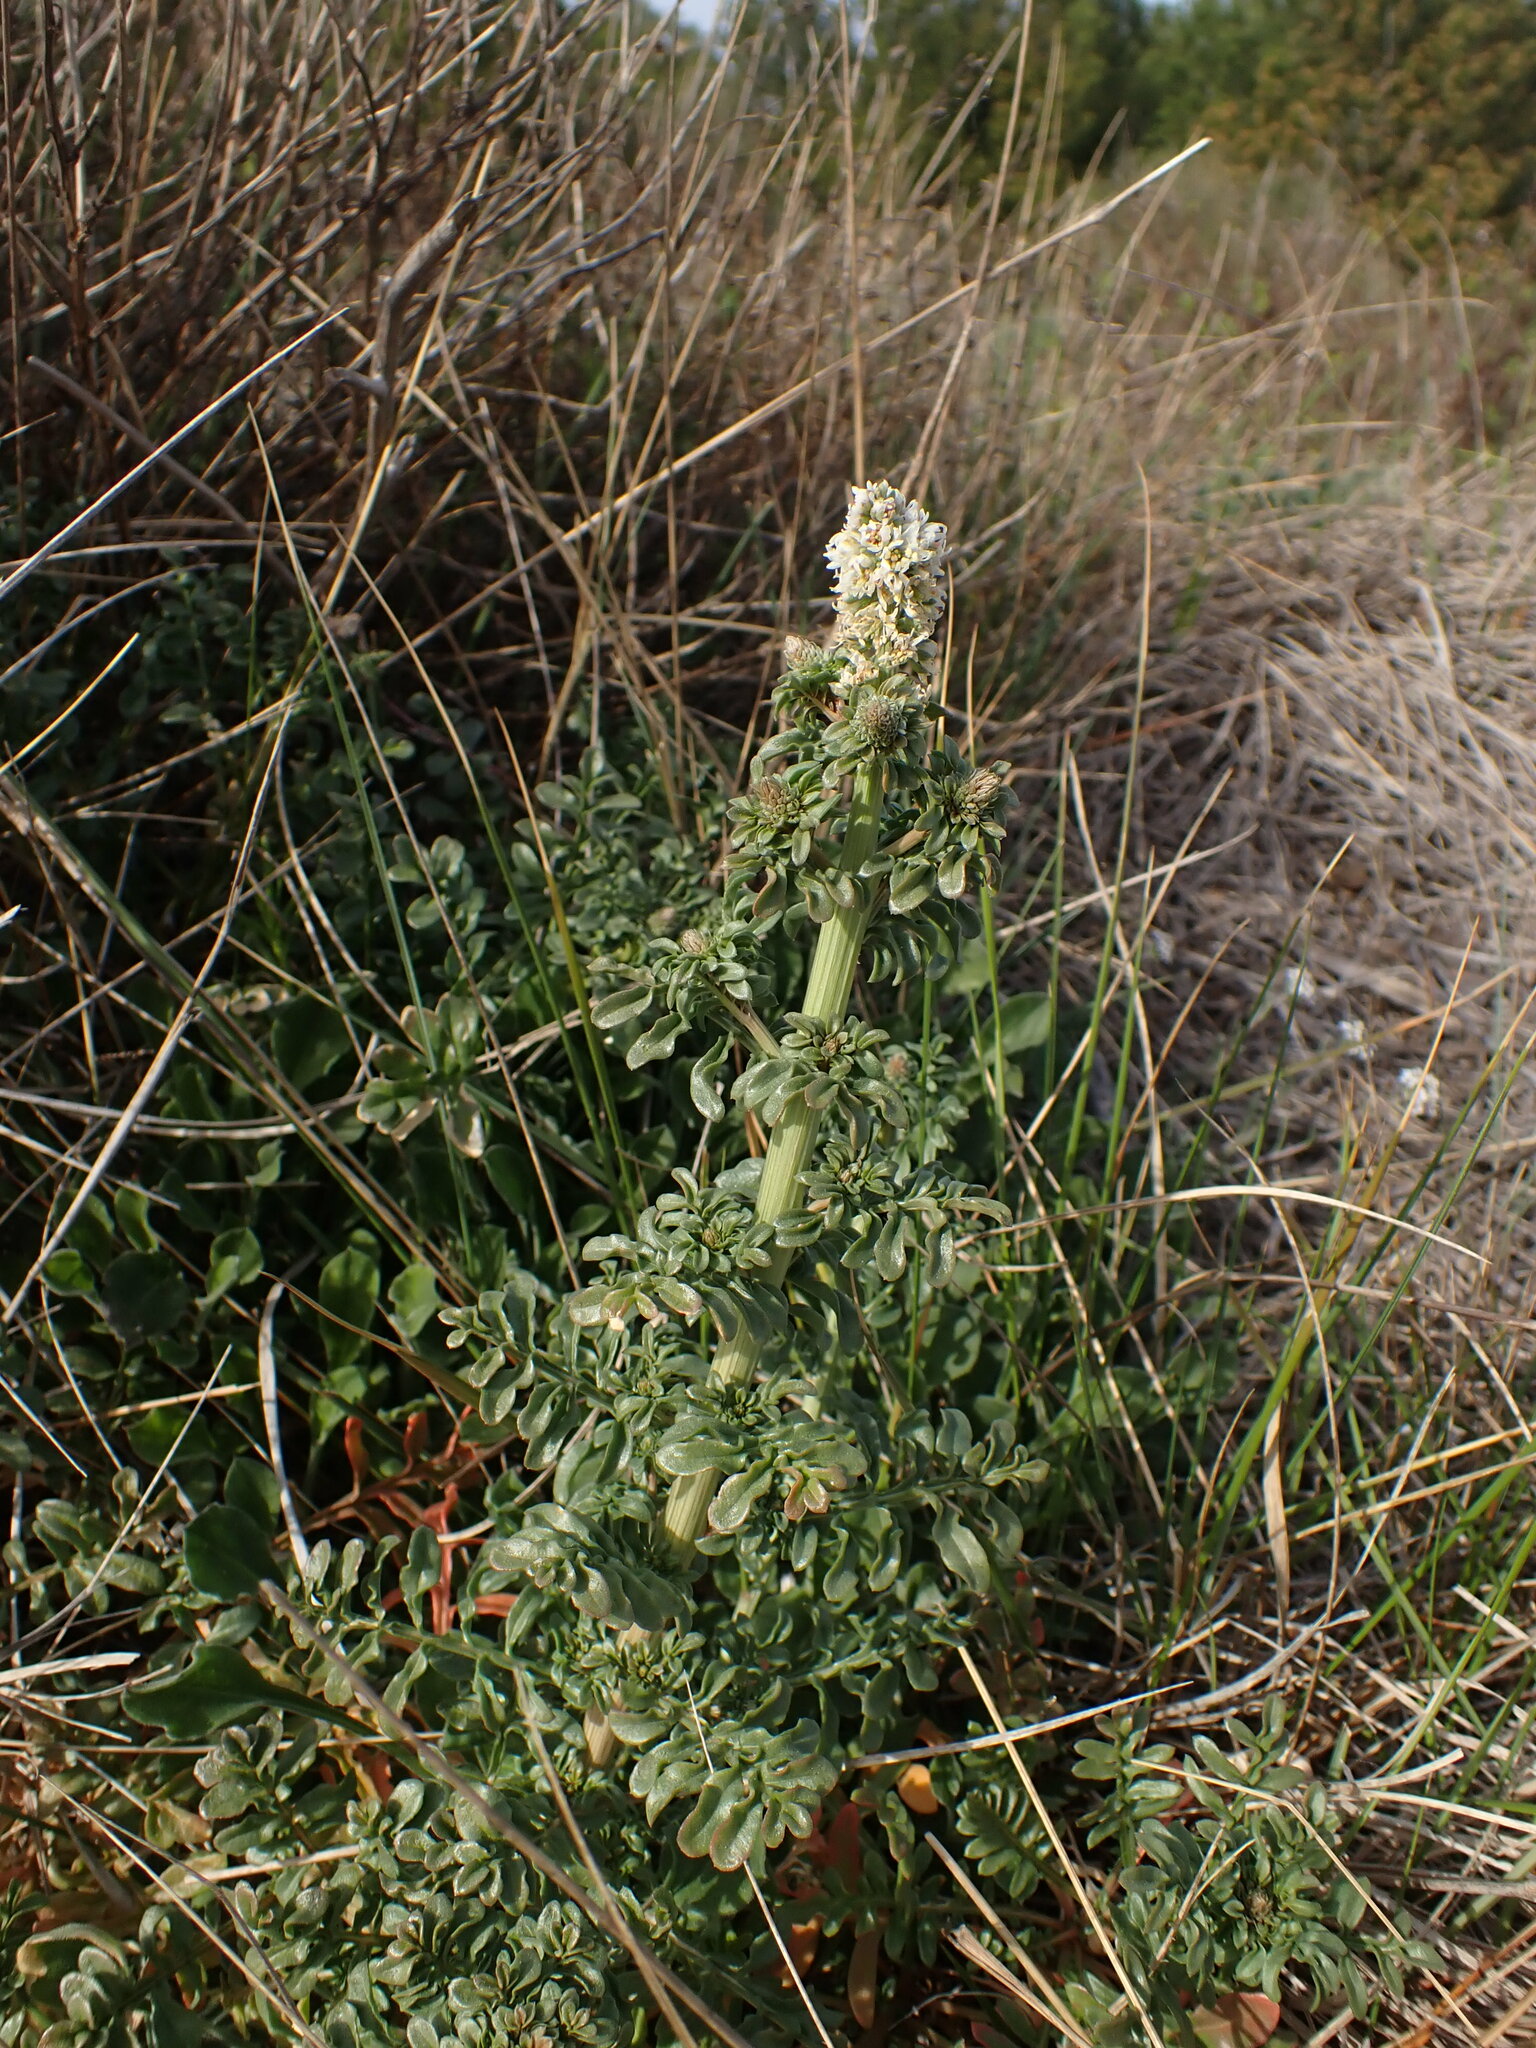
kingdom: Plantae
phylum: Tracheophyta
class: Magnoliopsida
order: Brassicales
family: Resedaceae
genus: Reseda
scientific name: Reseda alba
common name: White mignonette
